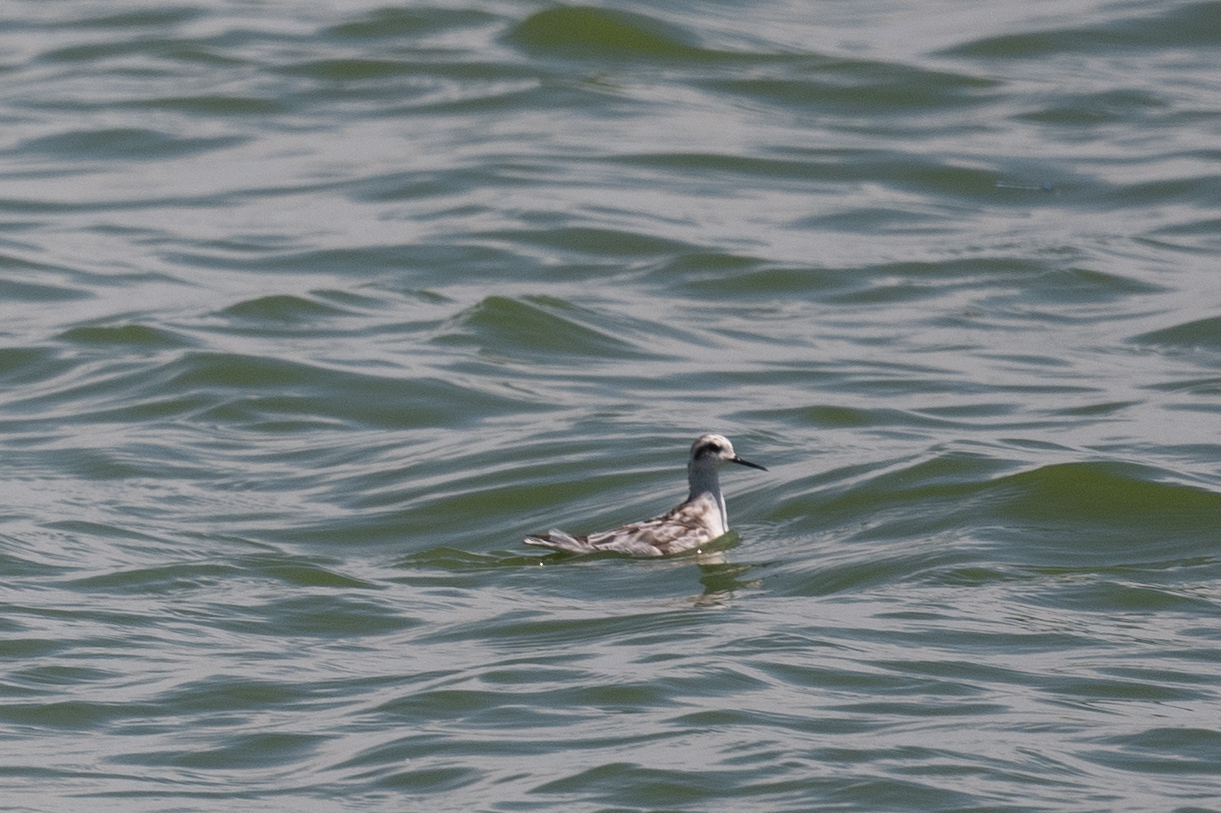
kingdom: Animalia
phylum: Chordata
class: Aves
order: Charadriiformes
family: Scolopacidae
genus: Phalaropus
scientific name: Phalaropus lobatus
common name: Red-necked phalarope
